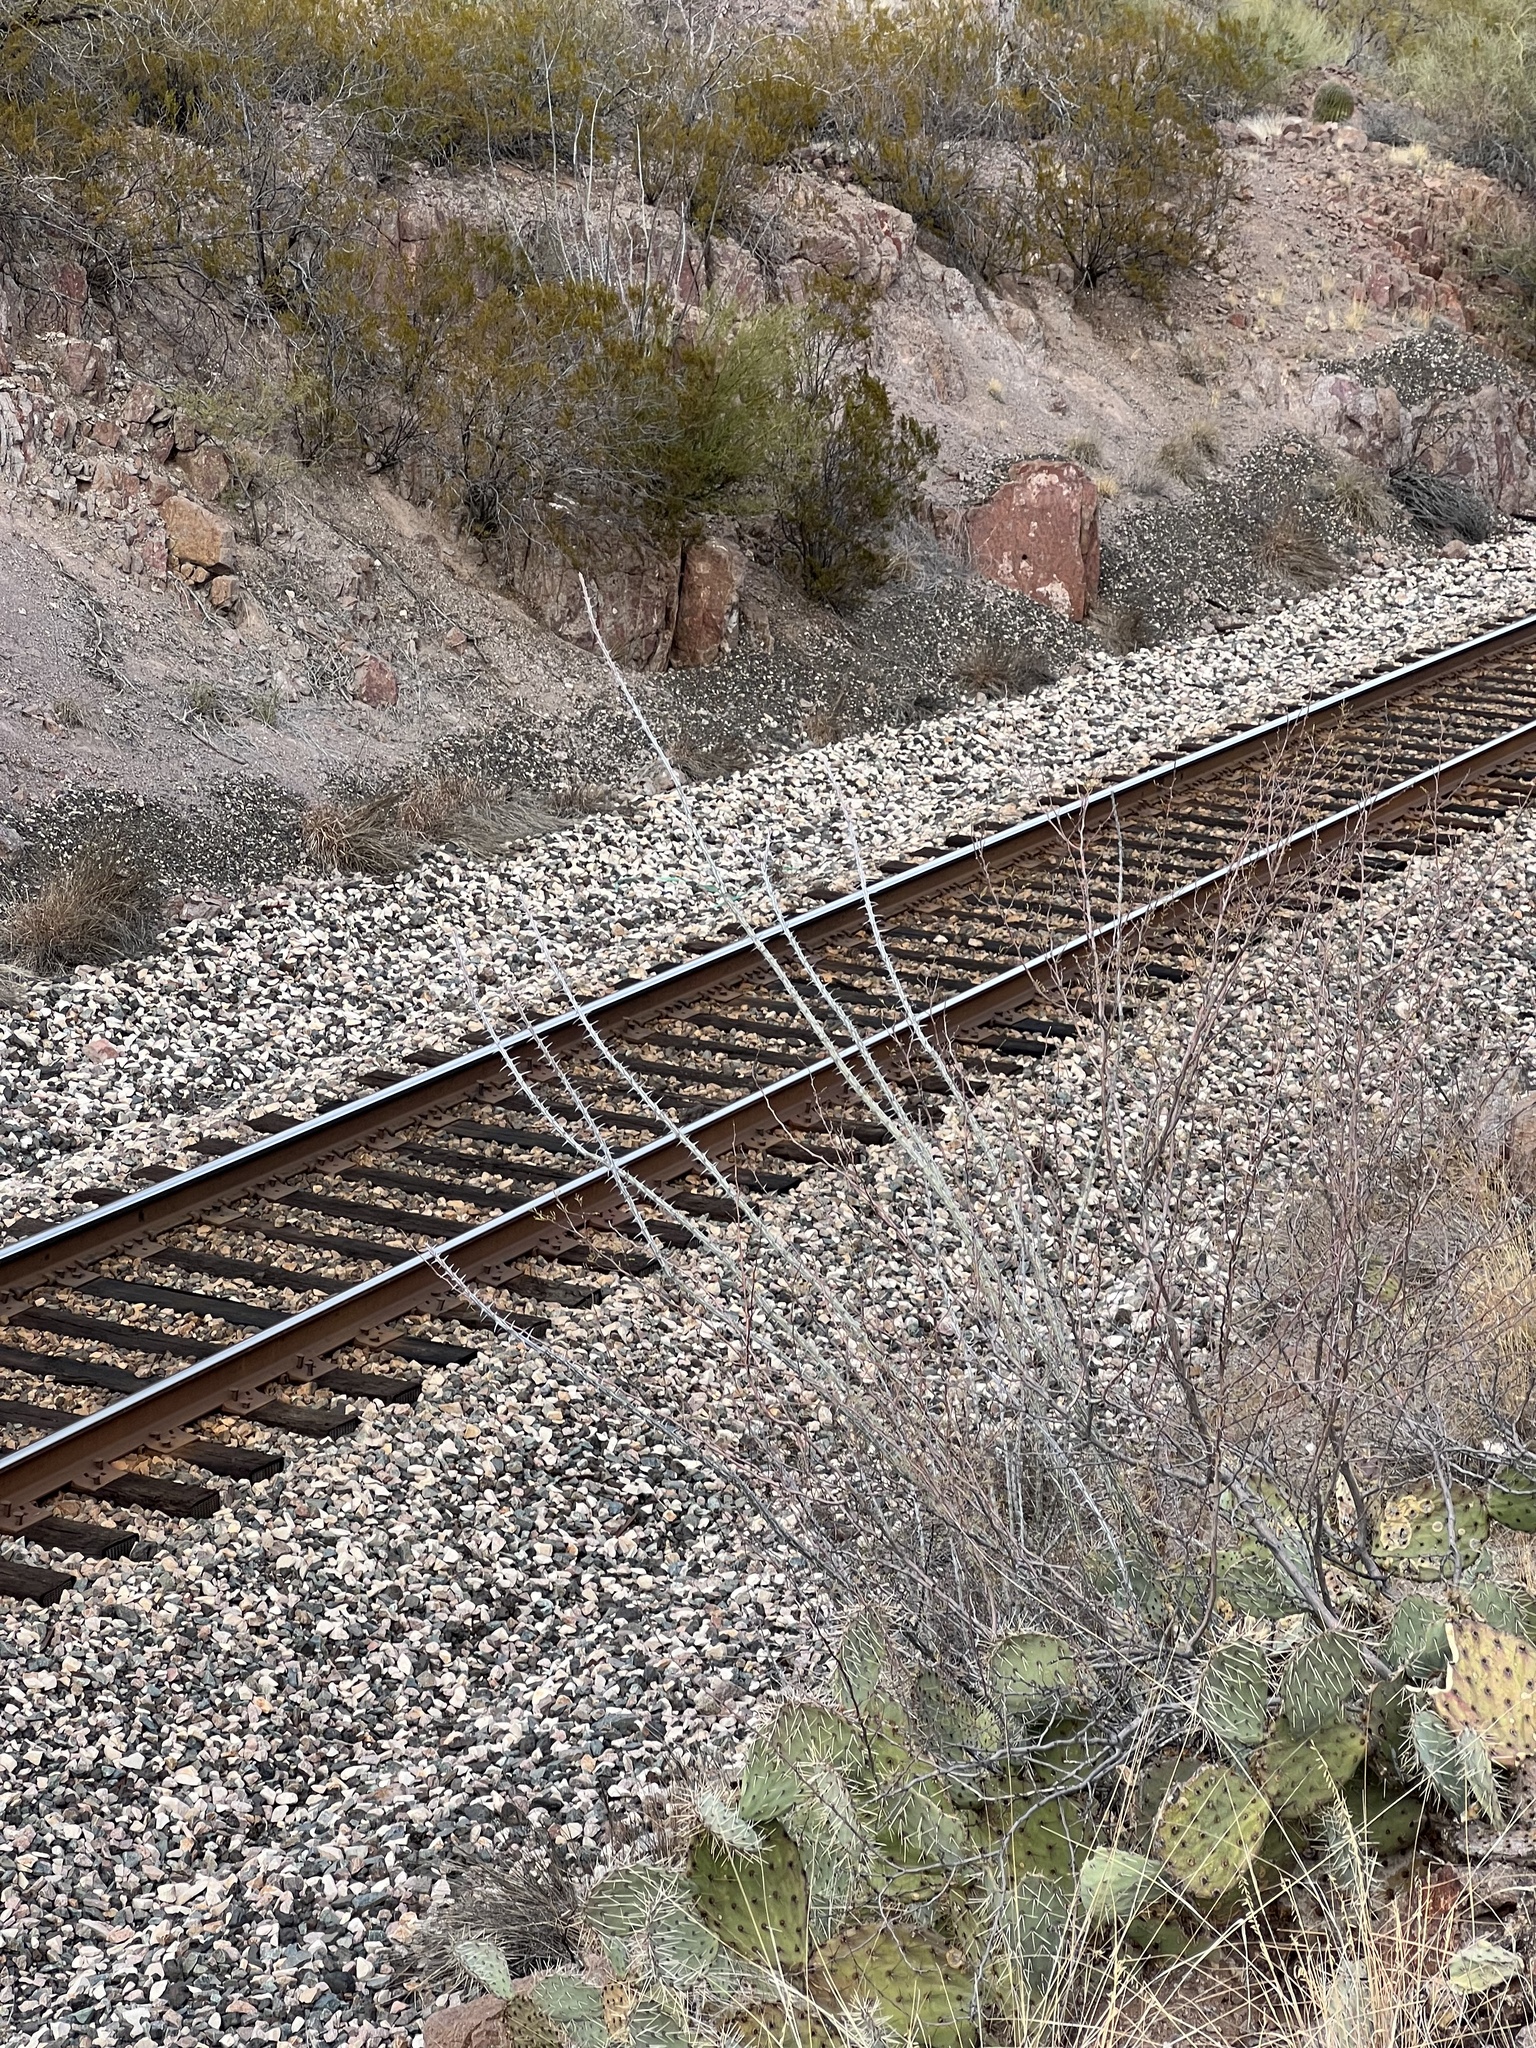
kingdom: Plantae
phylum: Tracheophyta
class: Magnoliopsida
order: Ericales
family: Fouquieriaceae
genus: Fouquieria
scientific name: Fouquieria splendens
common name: Vine-cactus
